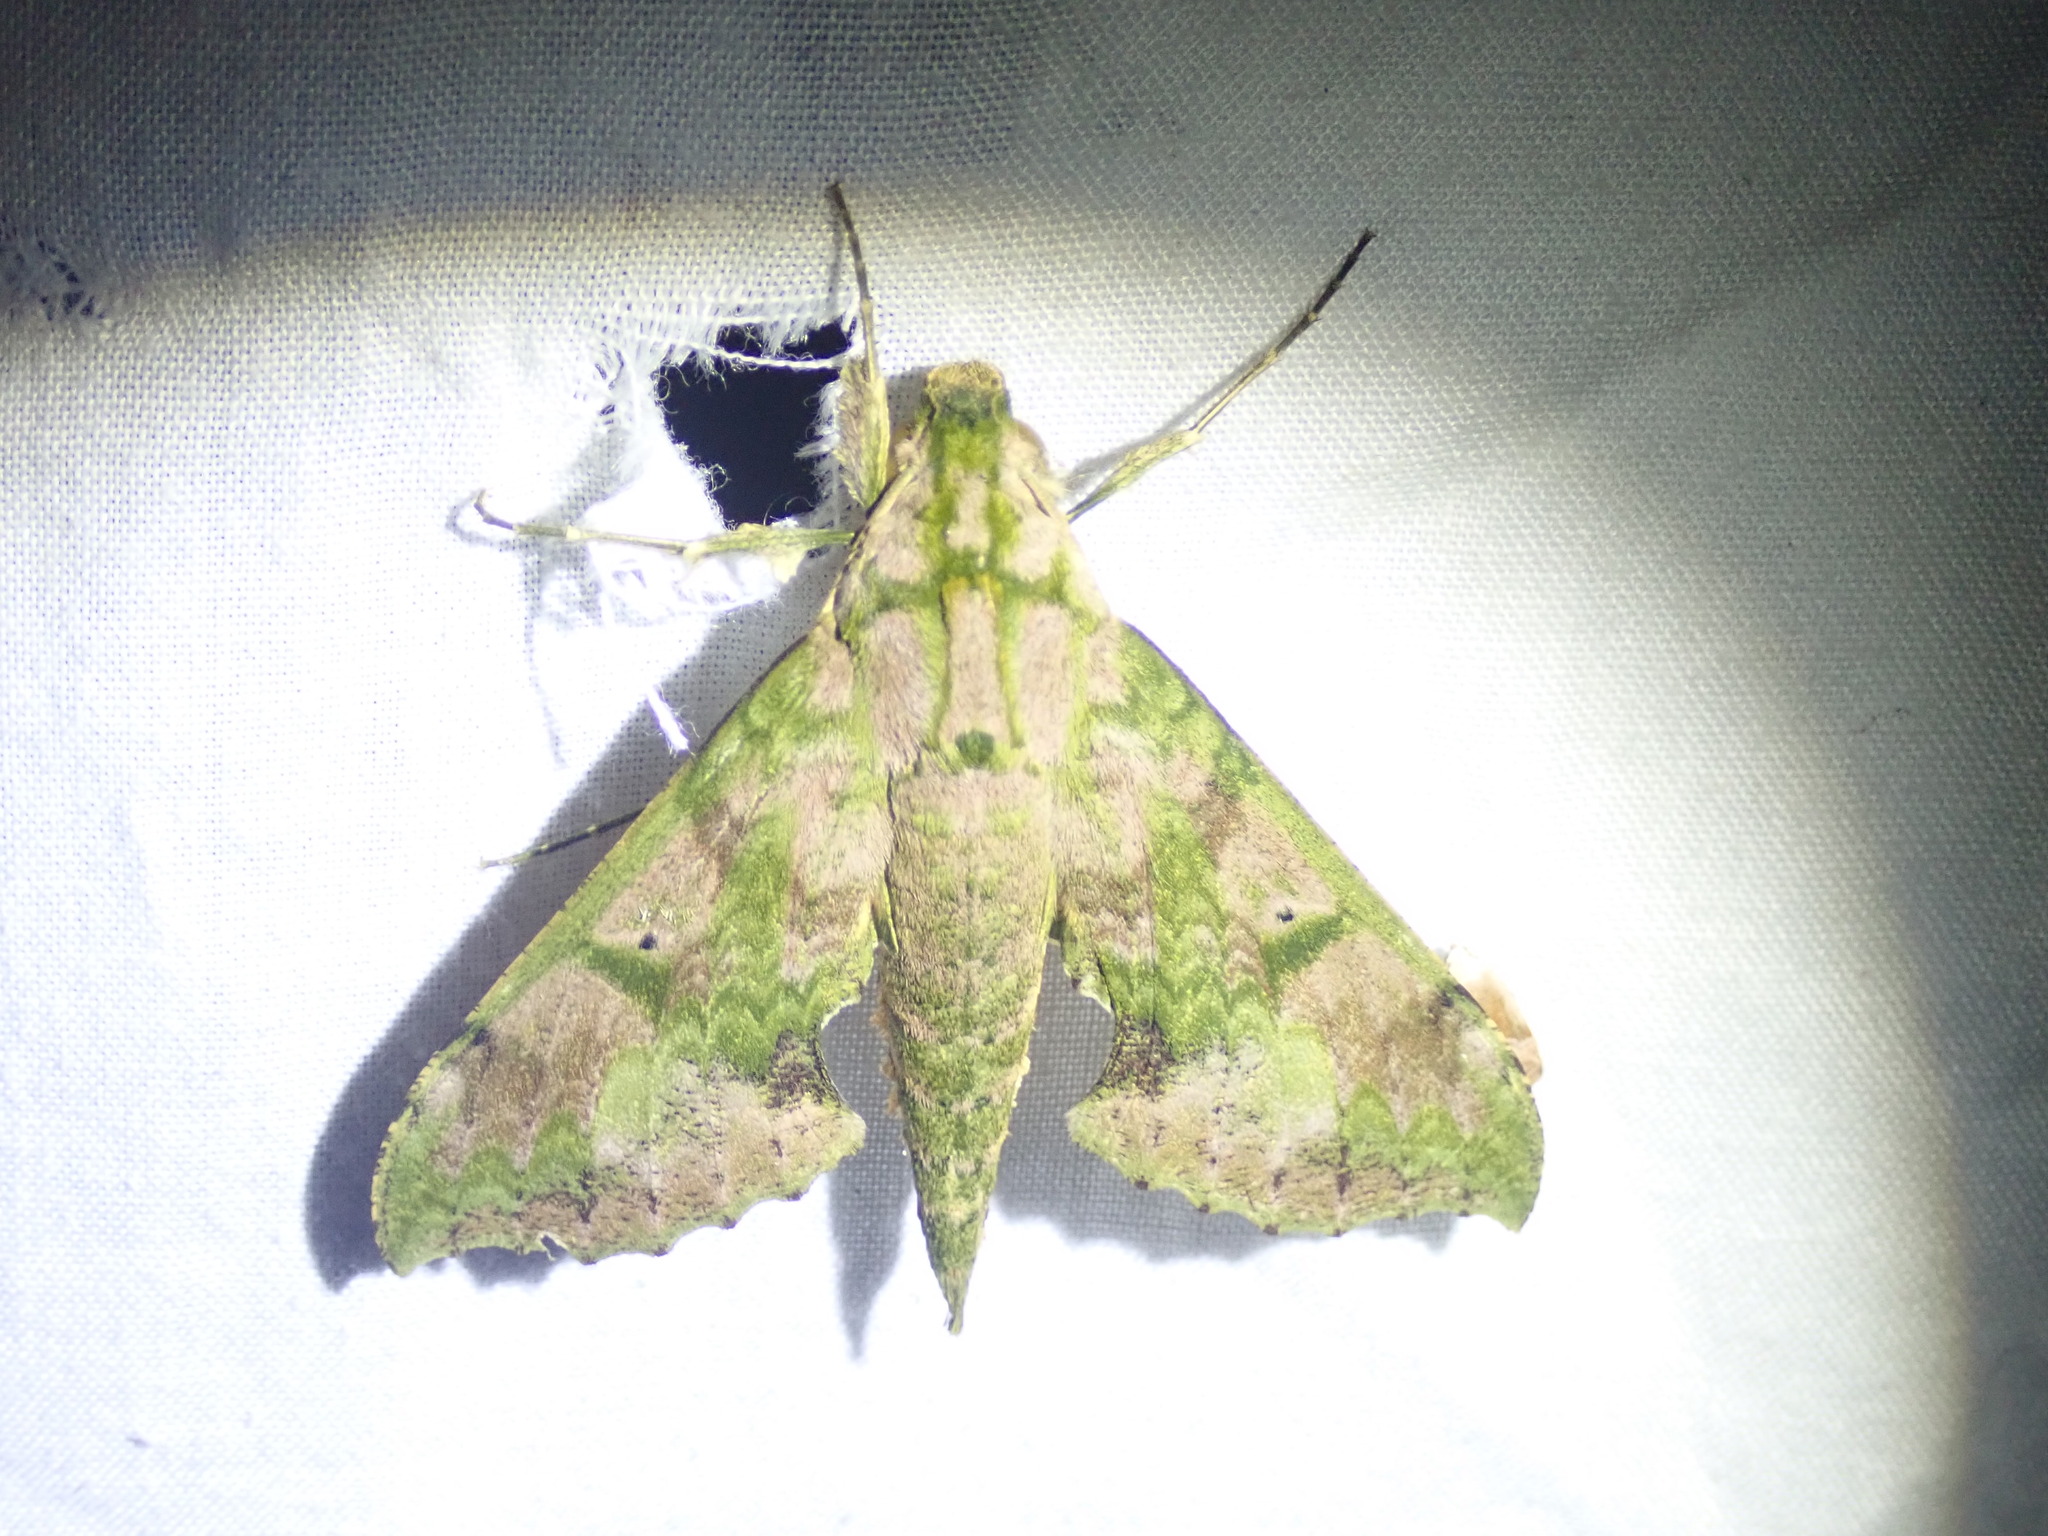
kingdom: Animalia
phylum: Arthropoda
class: Insecta
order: Lepidoptera
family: Sphingidae
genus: Xylophanes
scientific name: Xylophanes zurcheri
